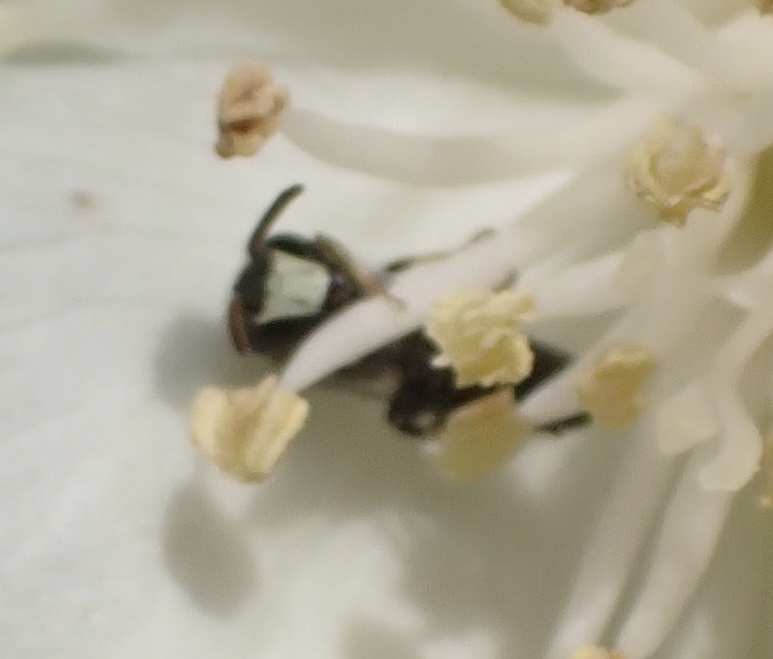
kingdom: Animalia
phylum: Arthropoda
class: Insecta
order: Hymenoptera
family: Colletidae
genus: Hylaeus
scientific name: Hylaeus hyalinatus
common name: Hyaline masked bee
